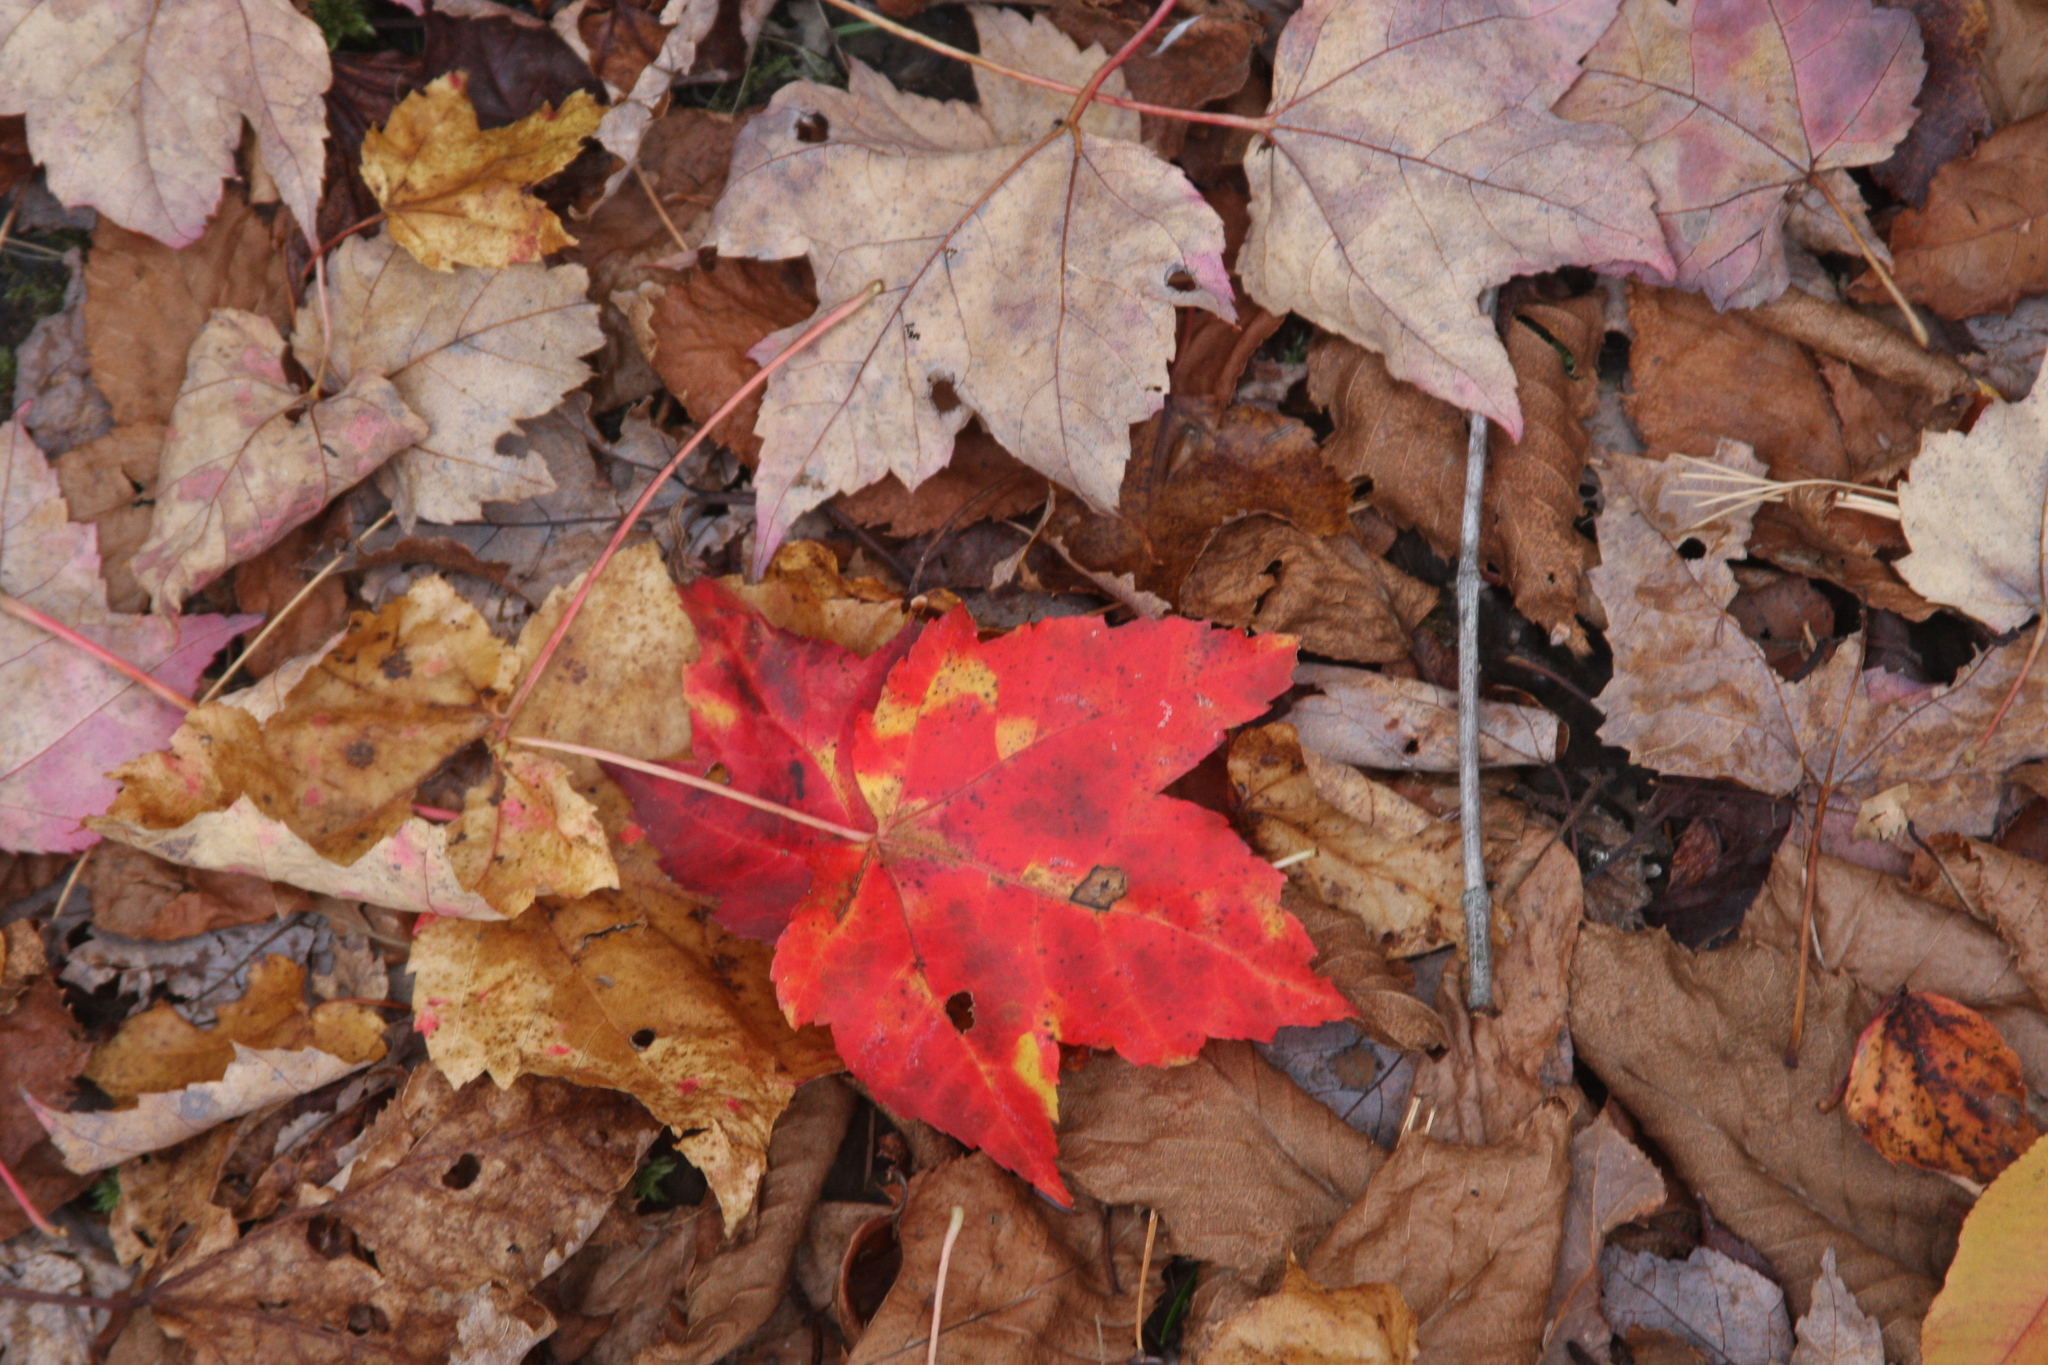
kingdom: Plantae
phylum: Tracheophyta
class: Magnoliopsida
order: Sapindales
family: Sapindaceae
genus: Acer
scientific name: Acer rubrum
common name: Red maple
